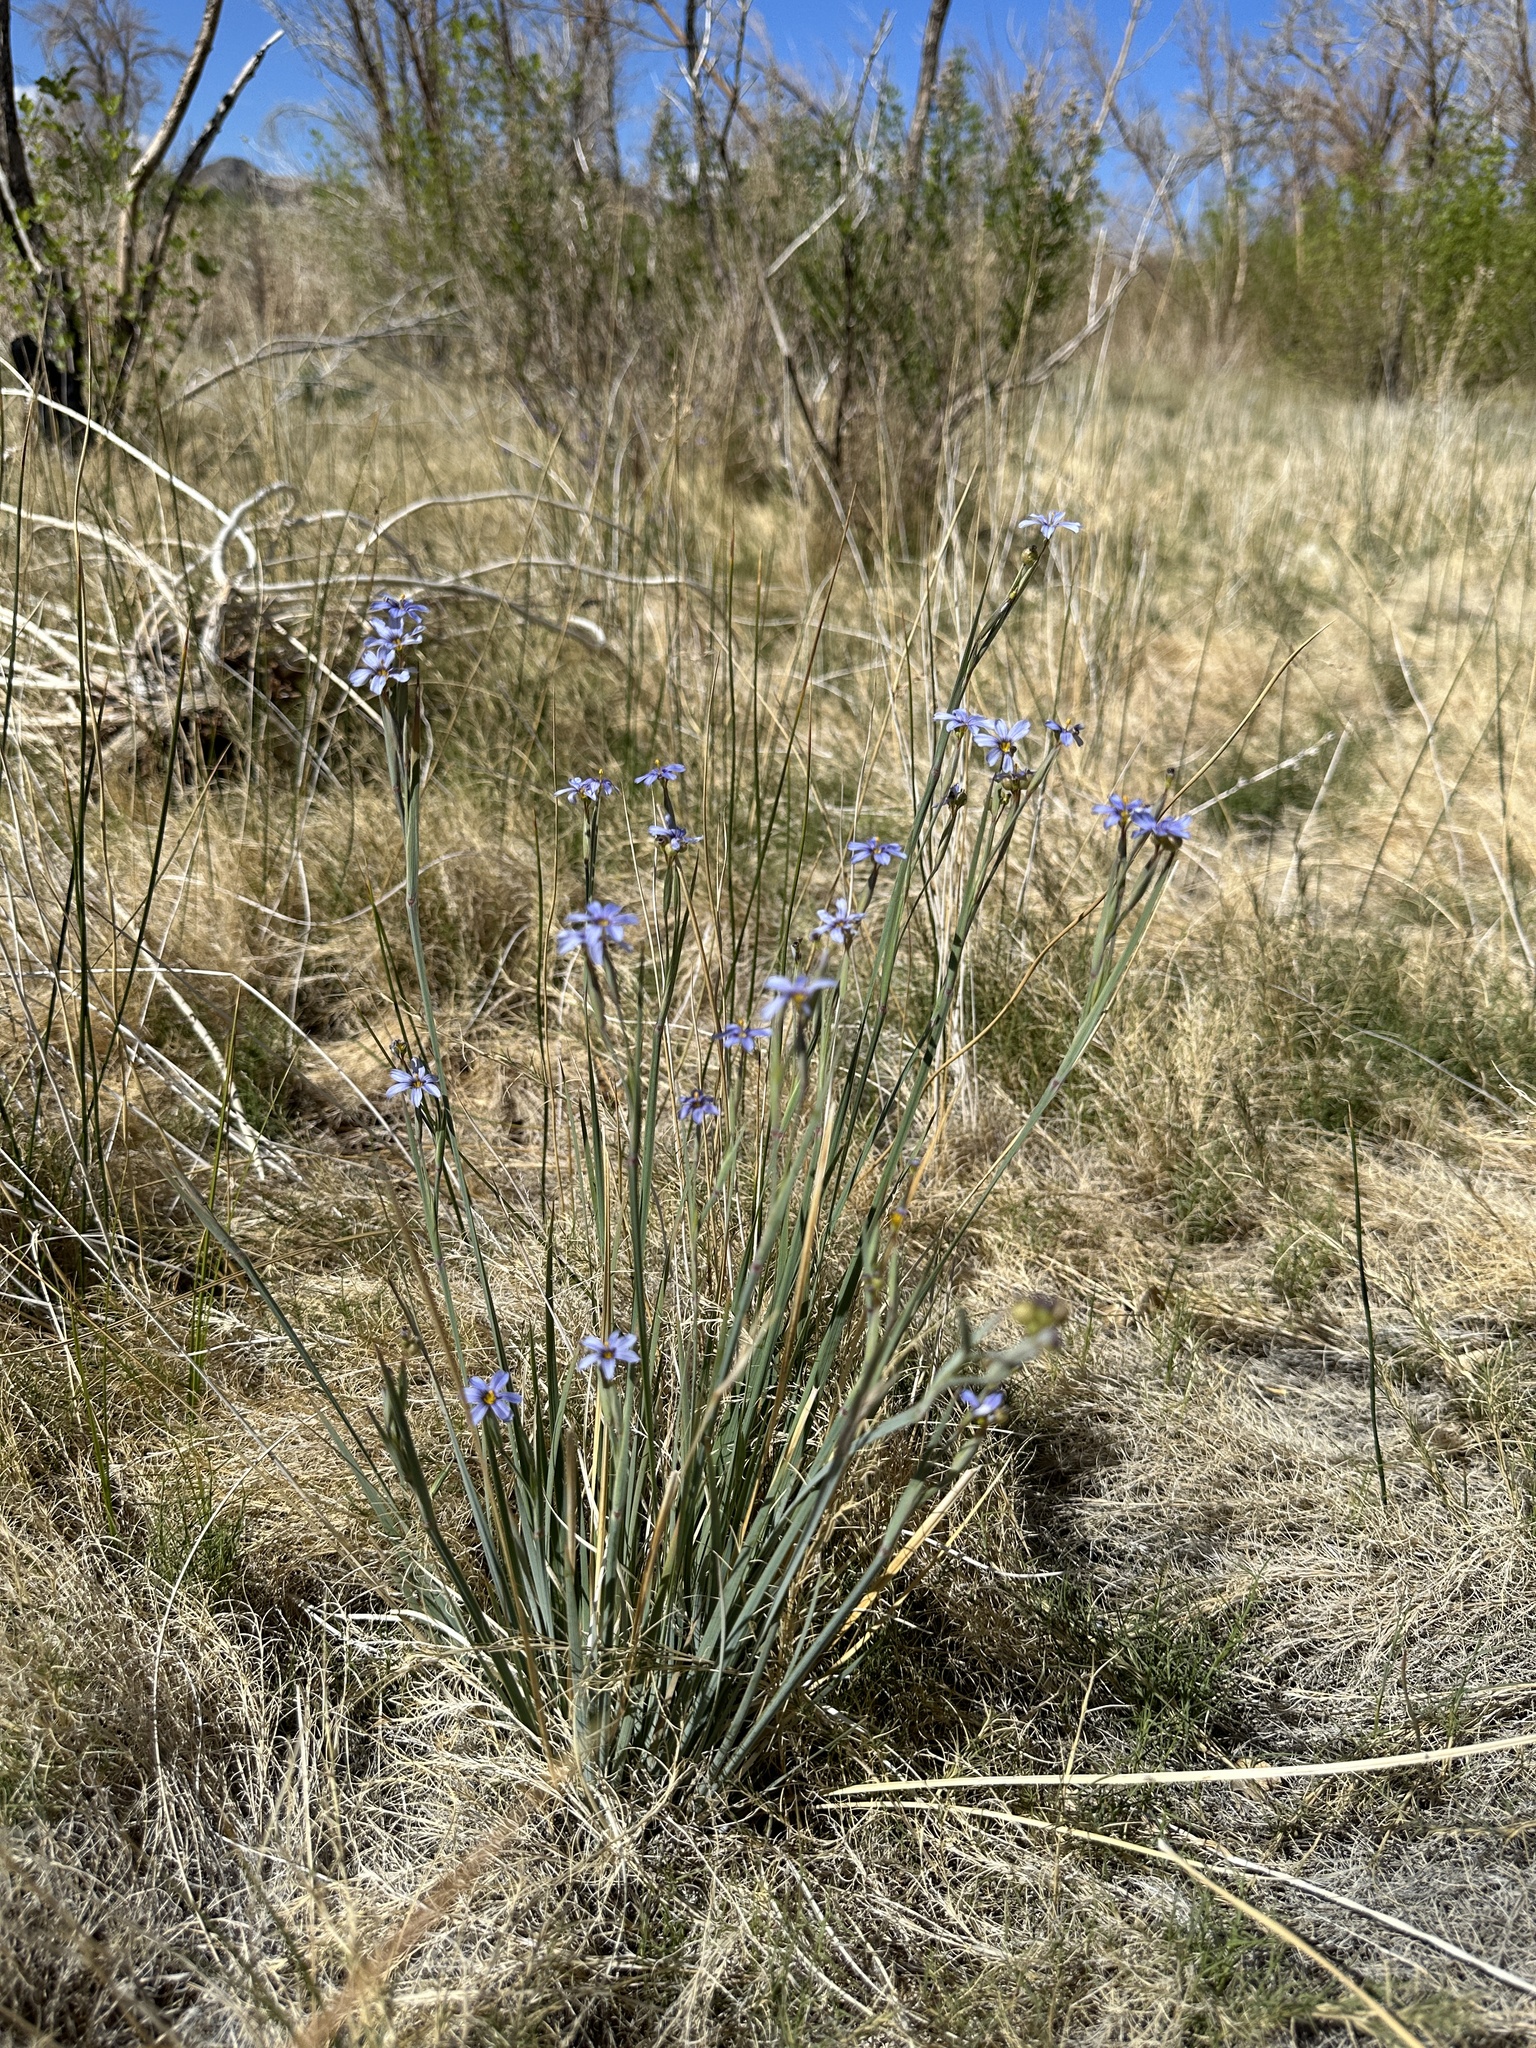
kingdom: Plantae
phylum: Tracheophyta
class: Liliopsida
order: Asparagales
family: Iridaceae
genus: Sisyrinchium
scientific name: Sisyrinchium funereum
